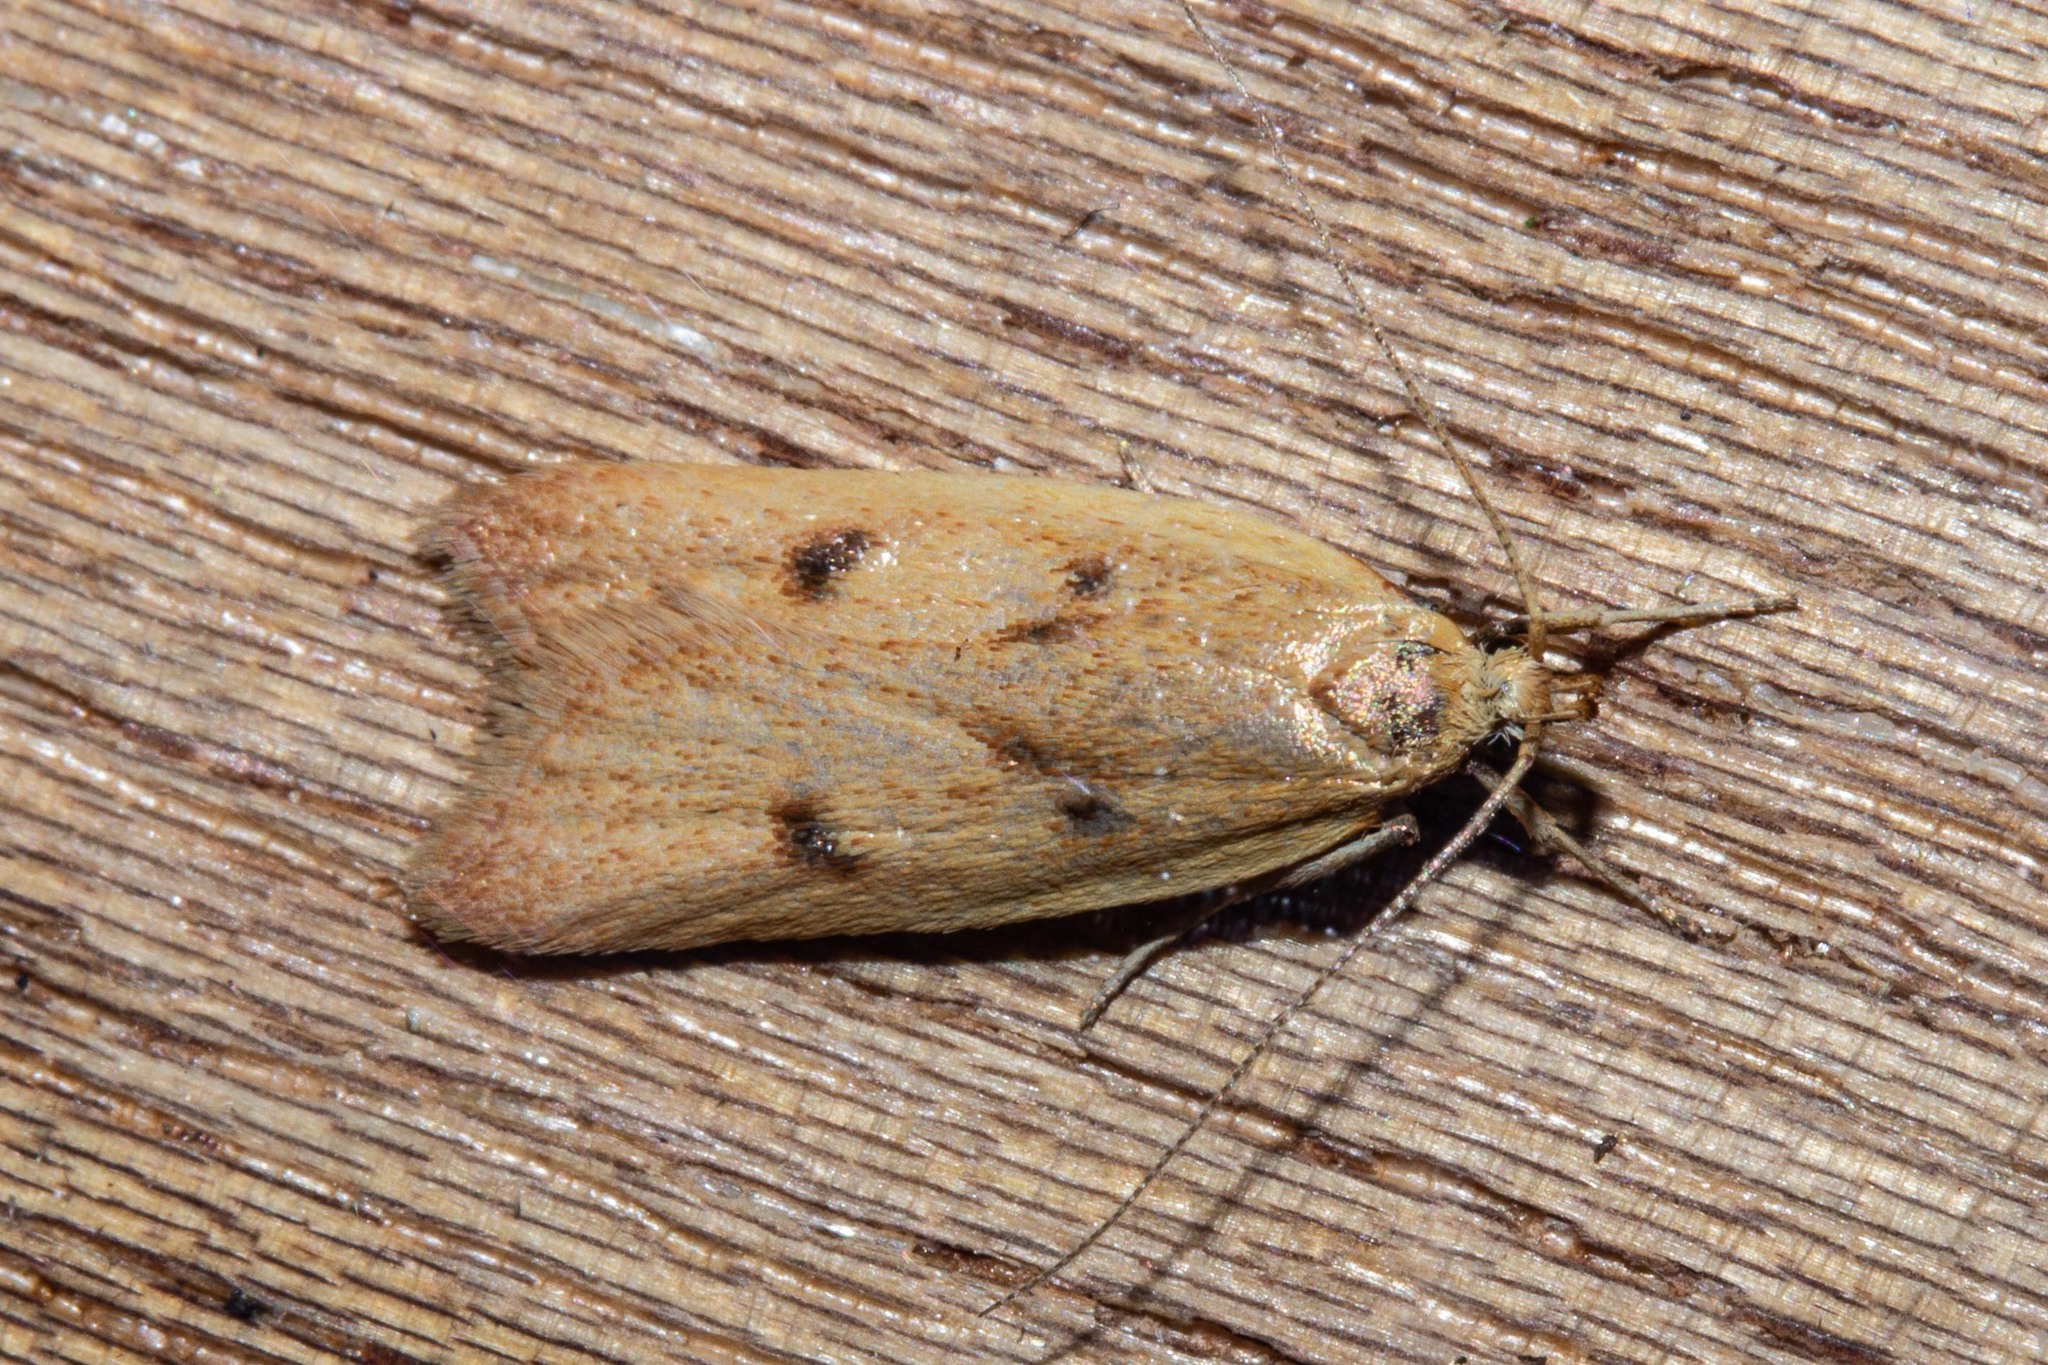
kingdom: Animalia
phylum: Arthropoda
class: Insecta
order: Lepidoptera
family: Oecophoridae
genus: Gymnobathra
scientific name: Gymnobathra sarcoxantha
